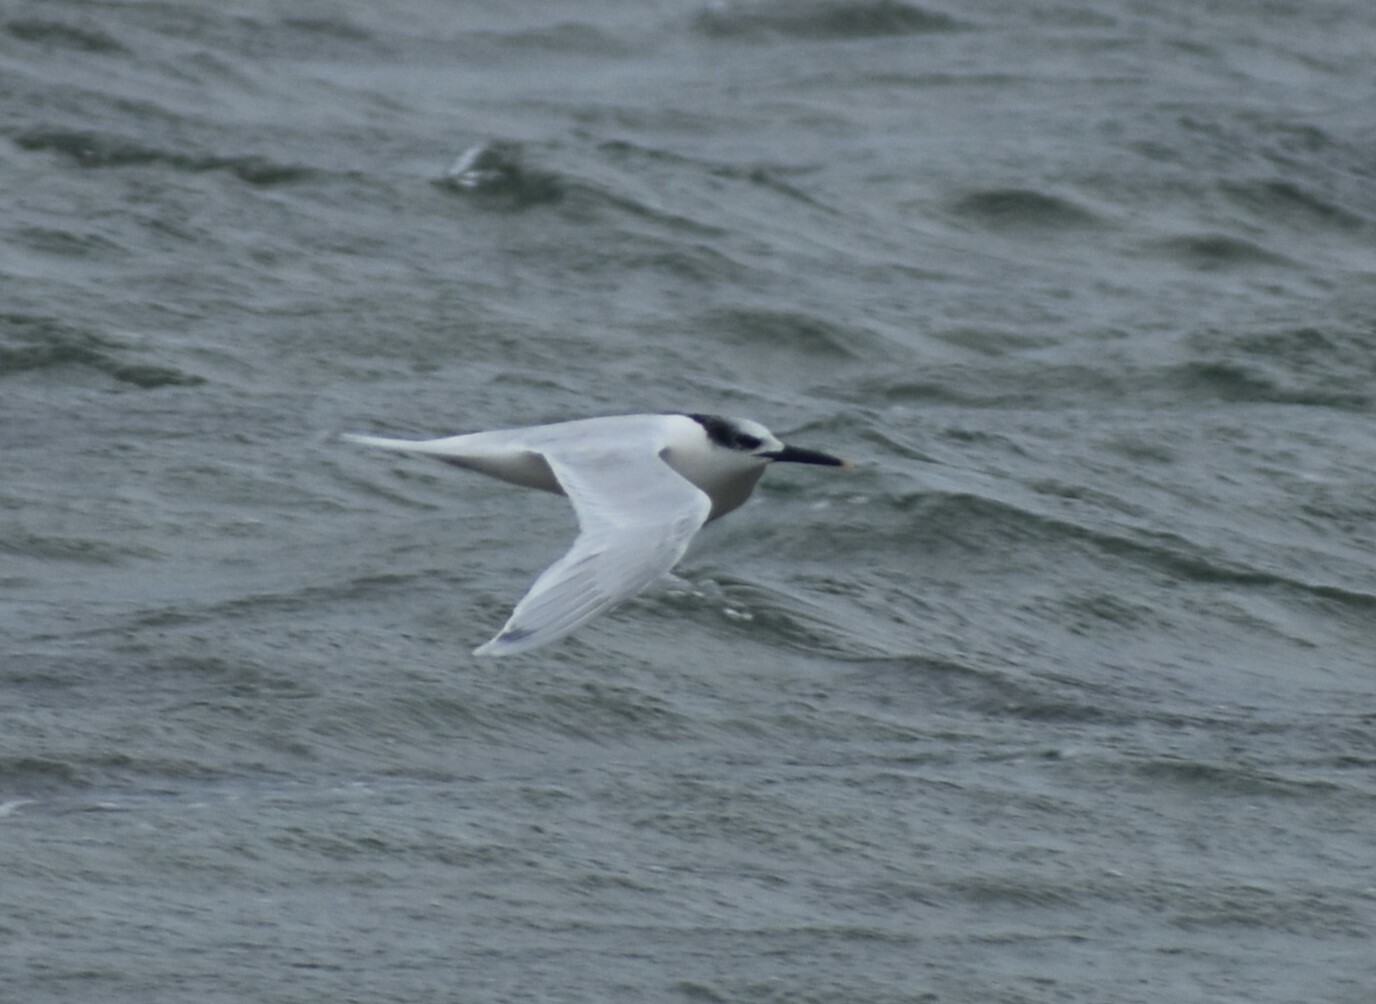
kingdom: Animalia
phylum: Chordata
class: Aves
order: Charadriiformes
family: Laridae
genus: Thalasseus
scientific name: Thalasseus sandvicensis
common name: Sandwich tern
